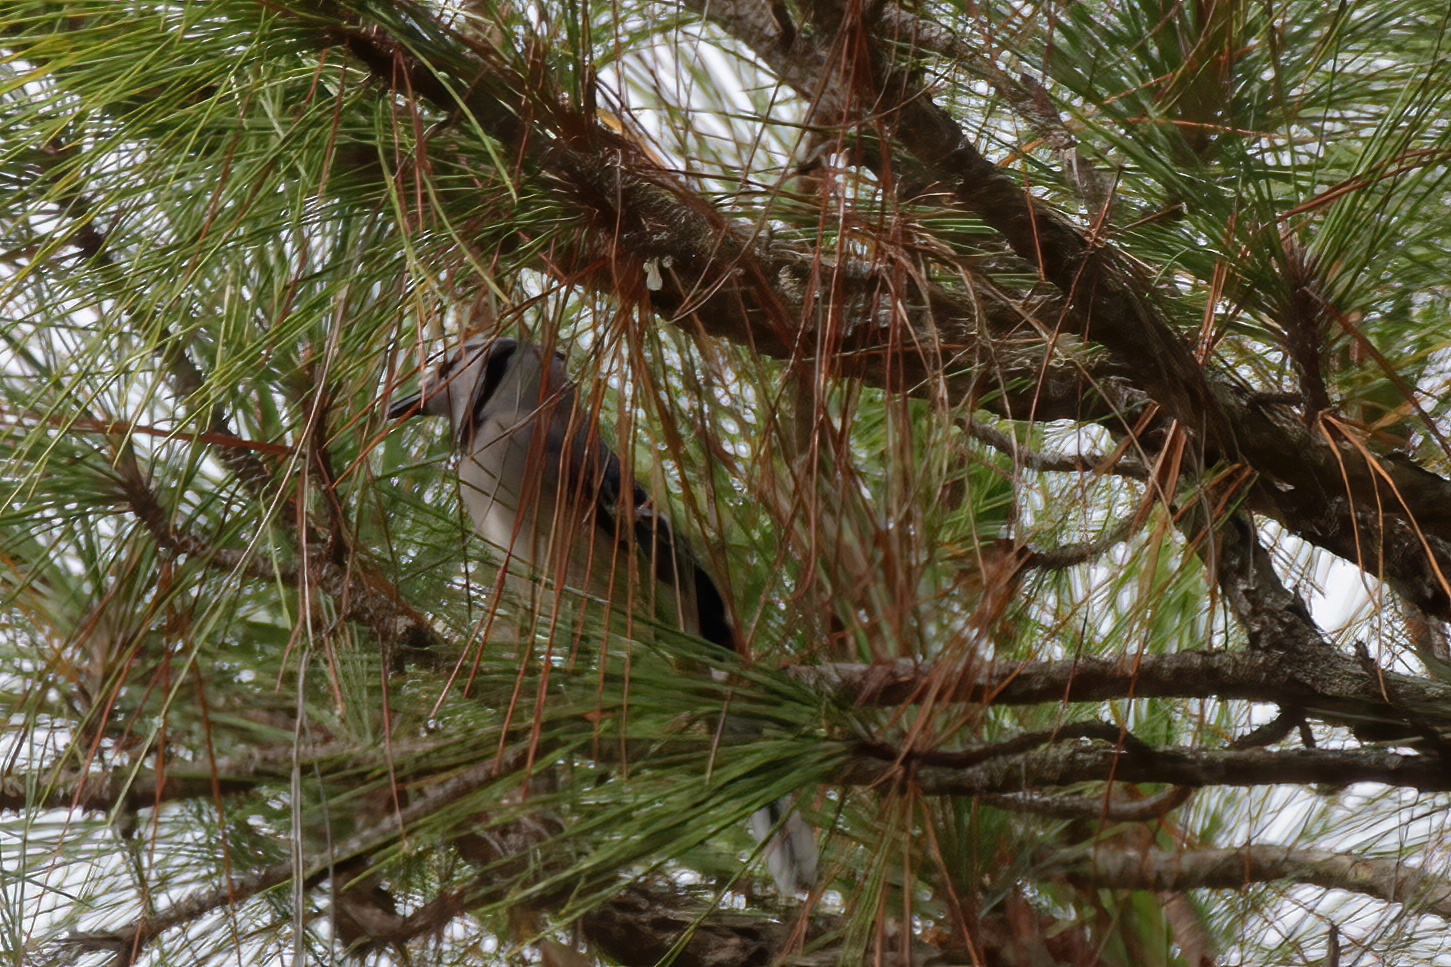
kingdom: Animalia
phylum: Chordata
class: Aves
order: Passeriformes
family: Corvidae
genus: Cyanocitta
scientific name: Cyanocitta cristata
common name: Blue jay
